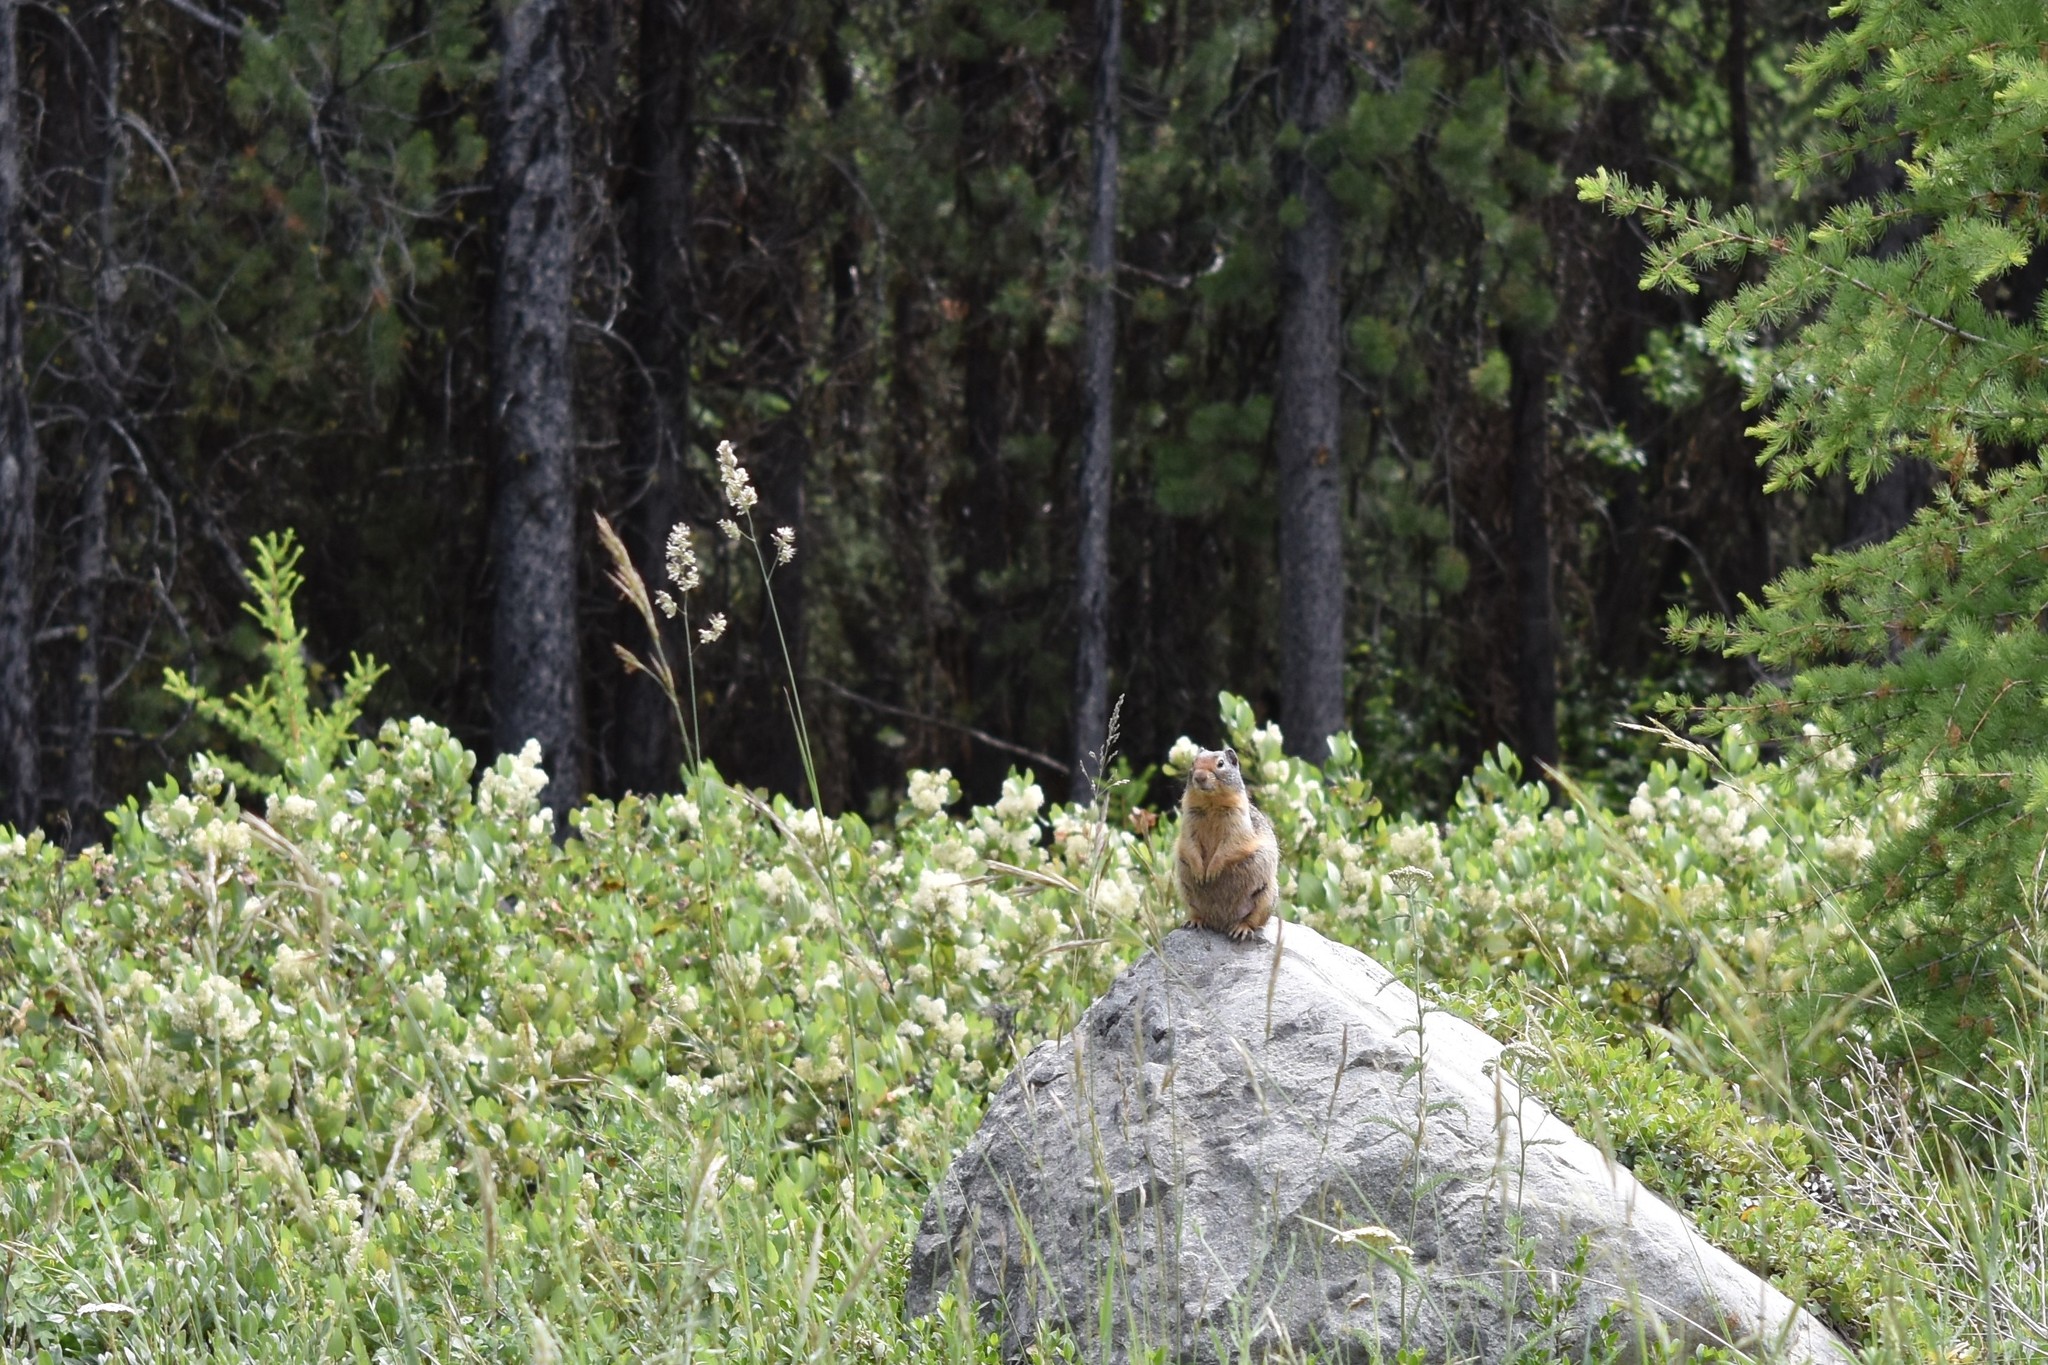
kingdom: Animalia
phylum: Chordata
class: Mammalia
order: Rodentia
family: Sciuridae
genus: Urocitellus
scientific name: Urocitellus columbianus
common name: Columbian ground squirrel
